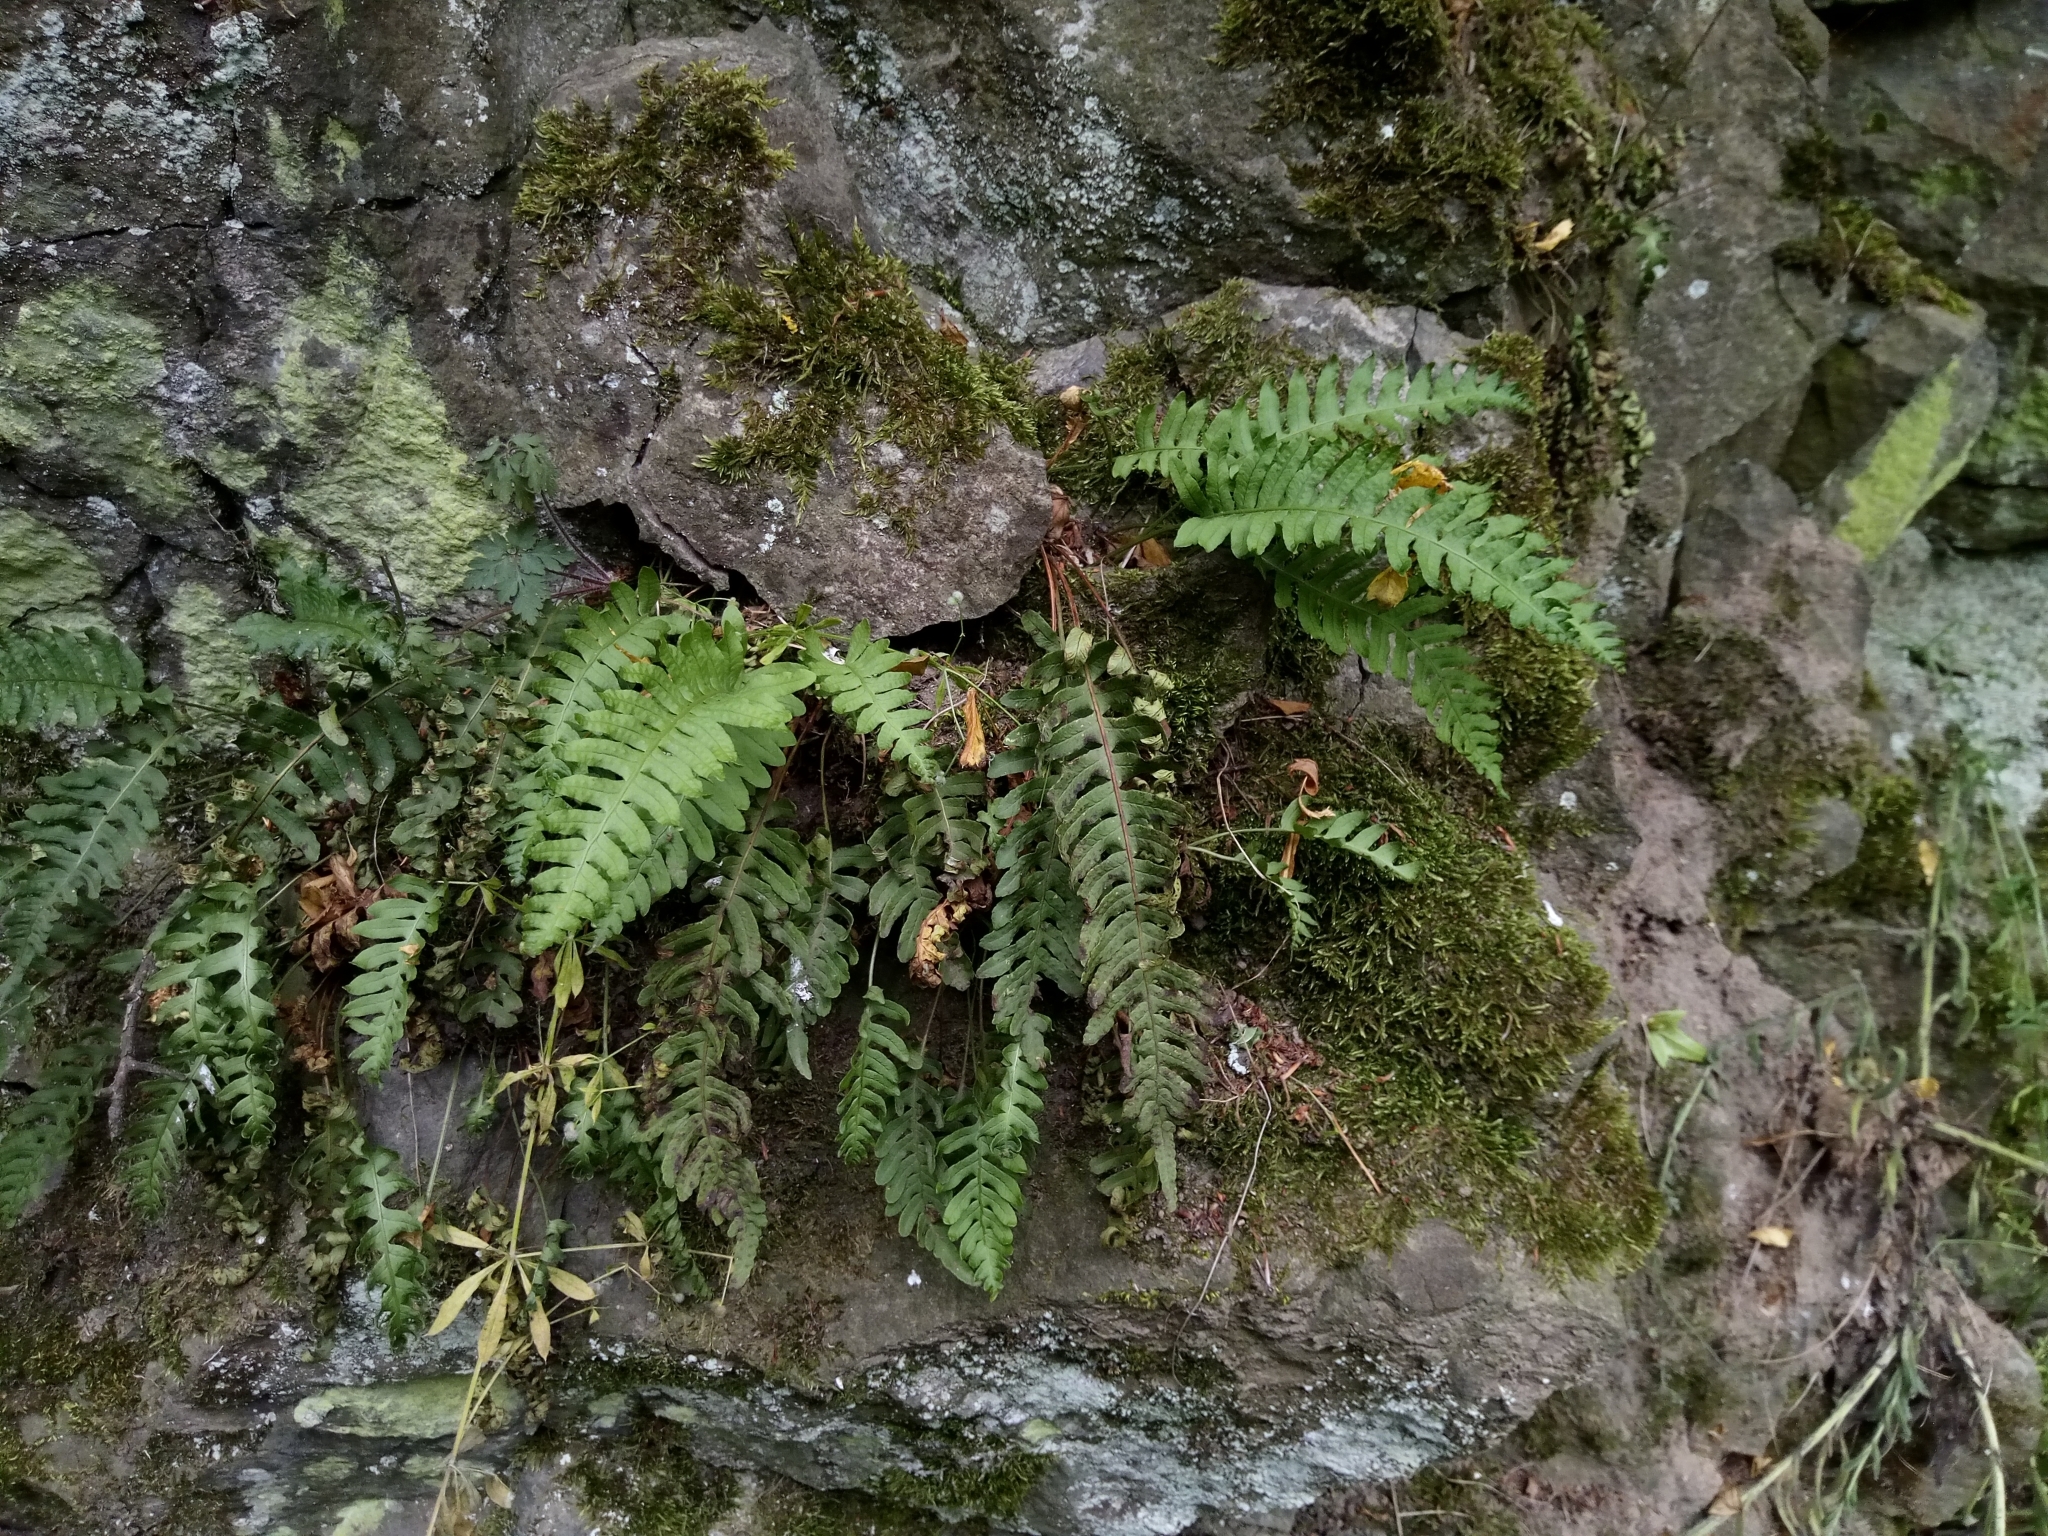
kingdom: Plantae
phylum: Tracheophyta
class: Polypodiopsida
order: Polypodiales
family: Polypodiaceae
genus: Polypodium
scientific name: Polypodium vulgare
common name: Common polypody
